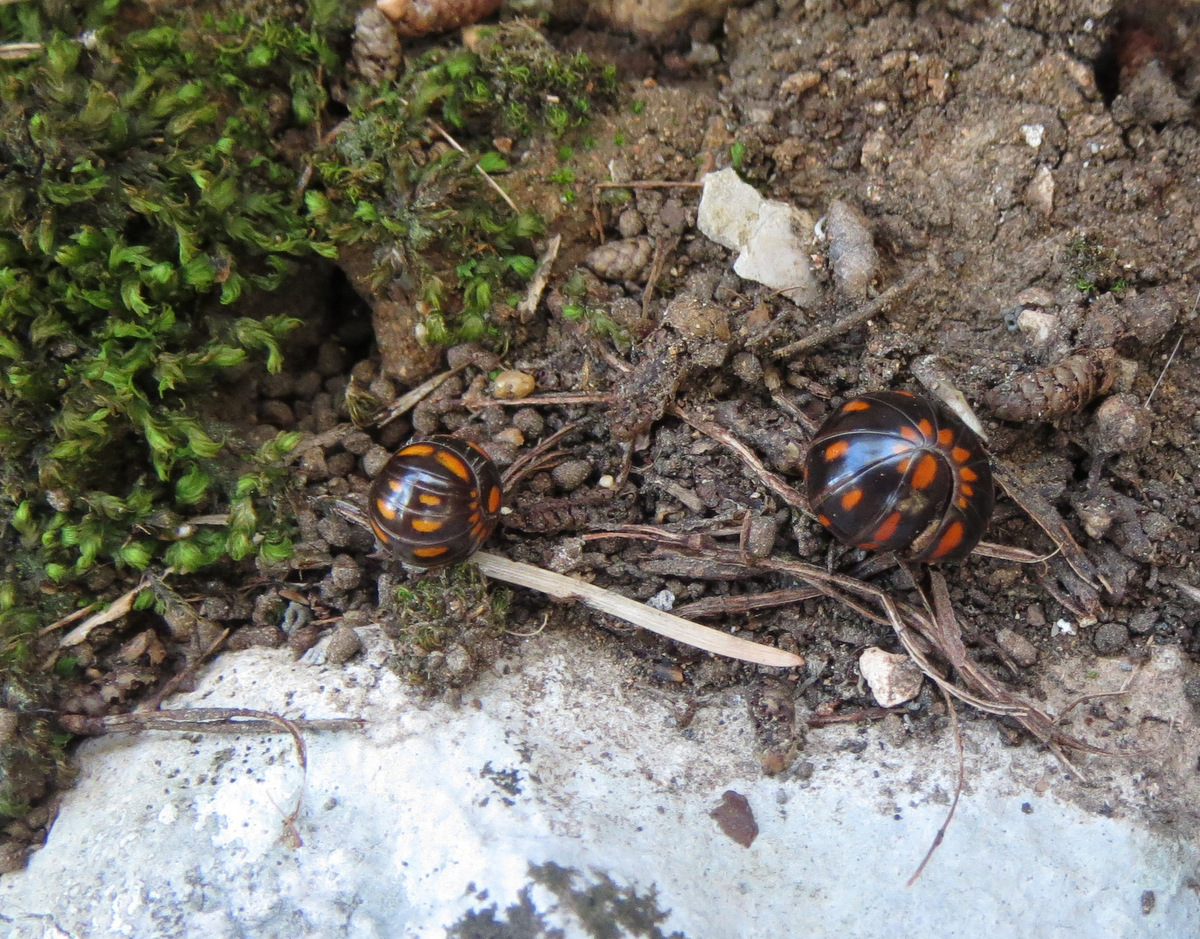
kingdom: Animalia
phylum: Arthropoda
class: Diplopoda
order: Glomerida
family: Glomeridae
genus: Glomeris
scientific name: Glomeris valesiaca
